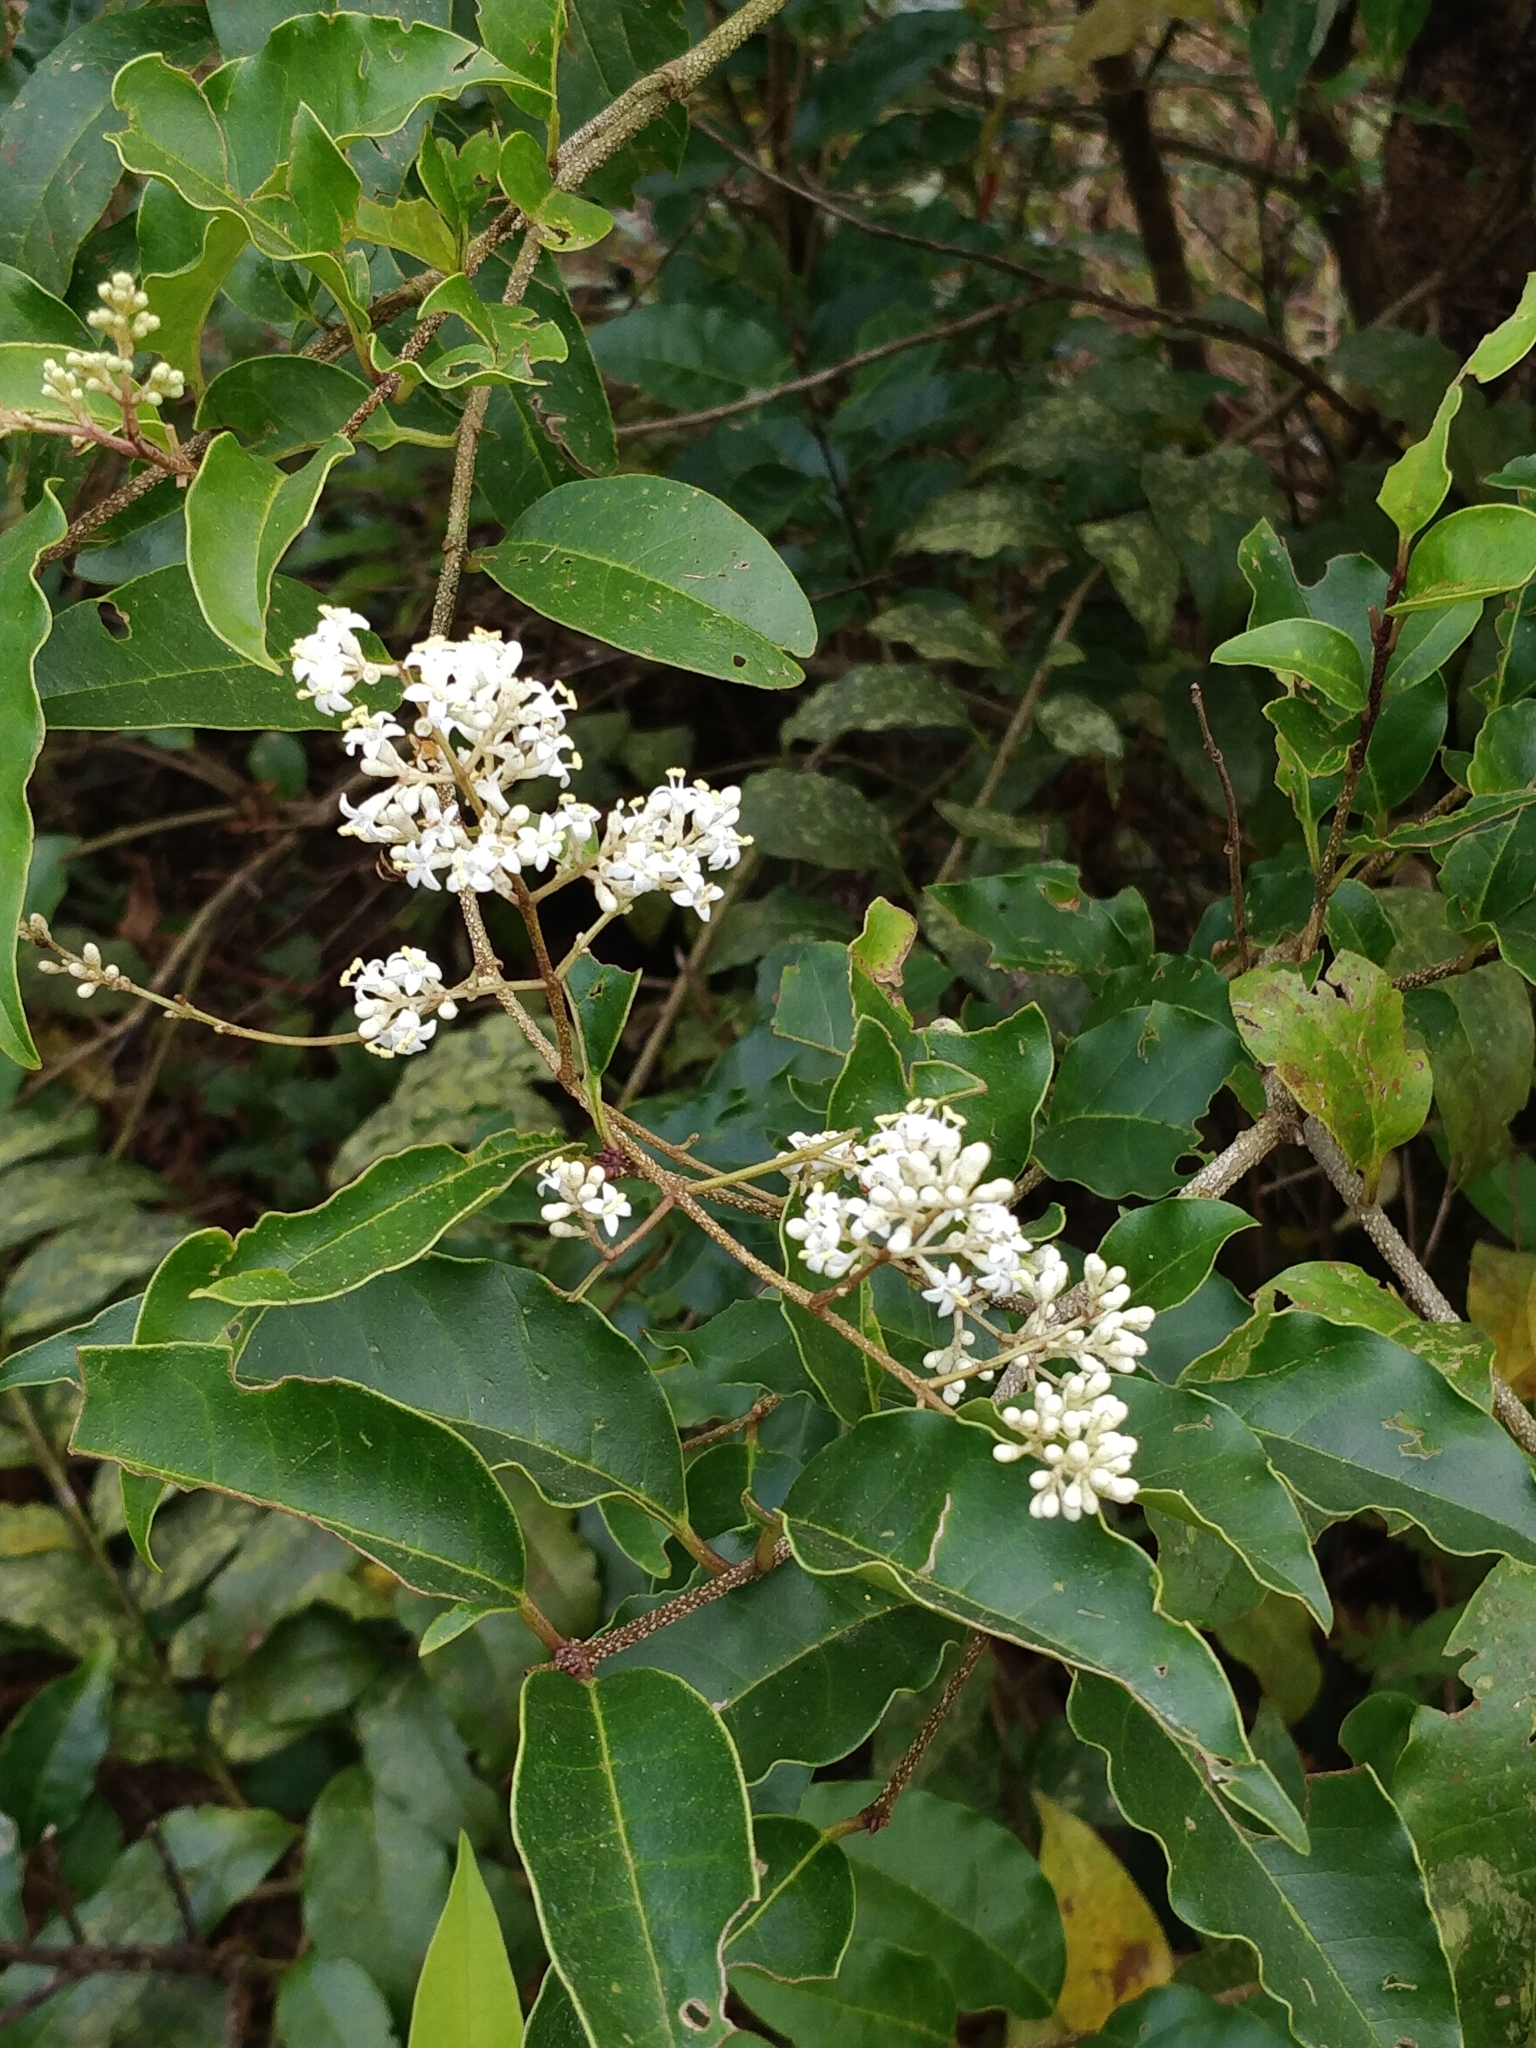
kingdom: Plantae
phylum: Tracheophyta
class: Magnoliopsida
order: Lamiales
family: Oleaceae
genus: Ligustrum
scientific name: Ligustrum robustum
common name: Tree privet
